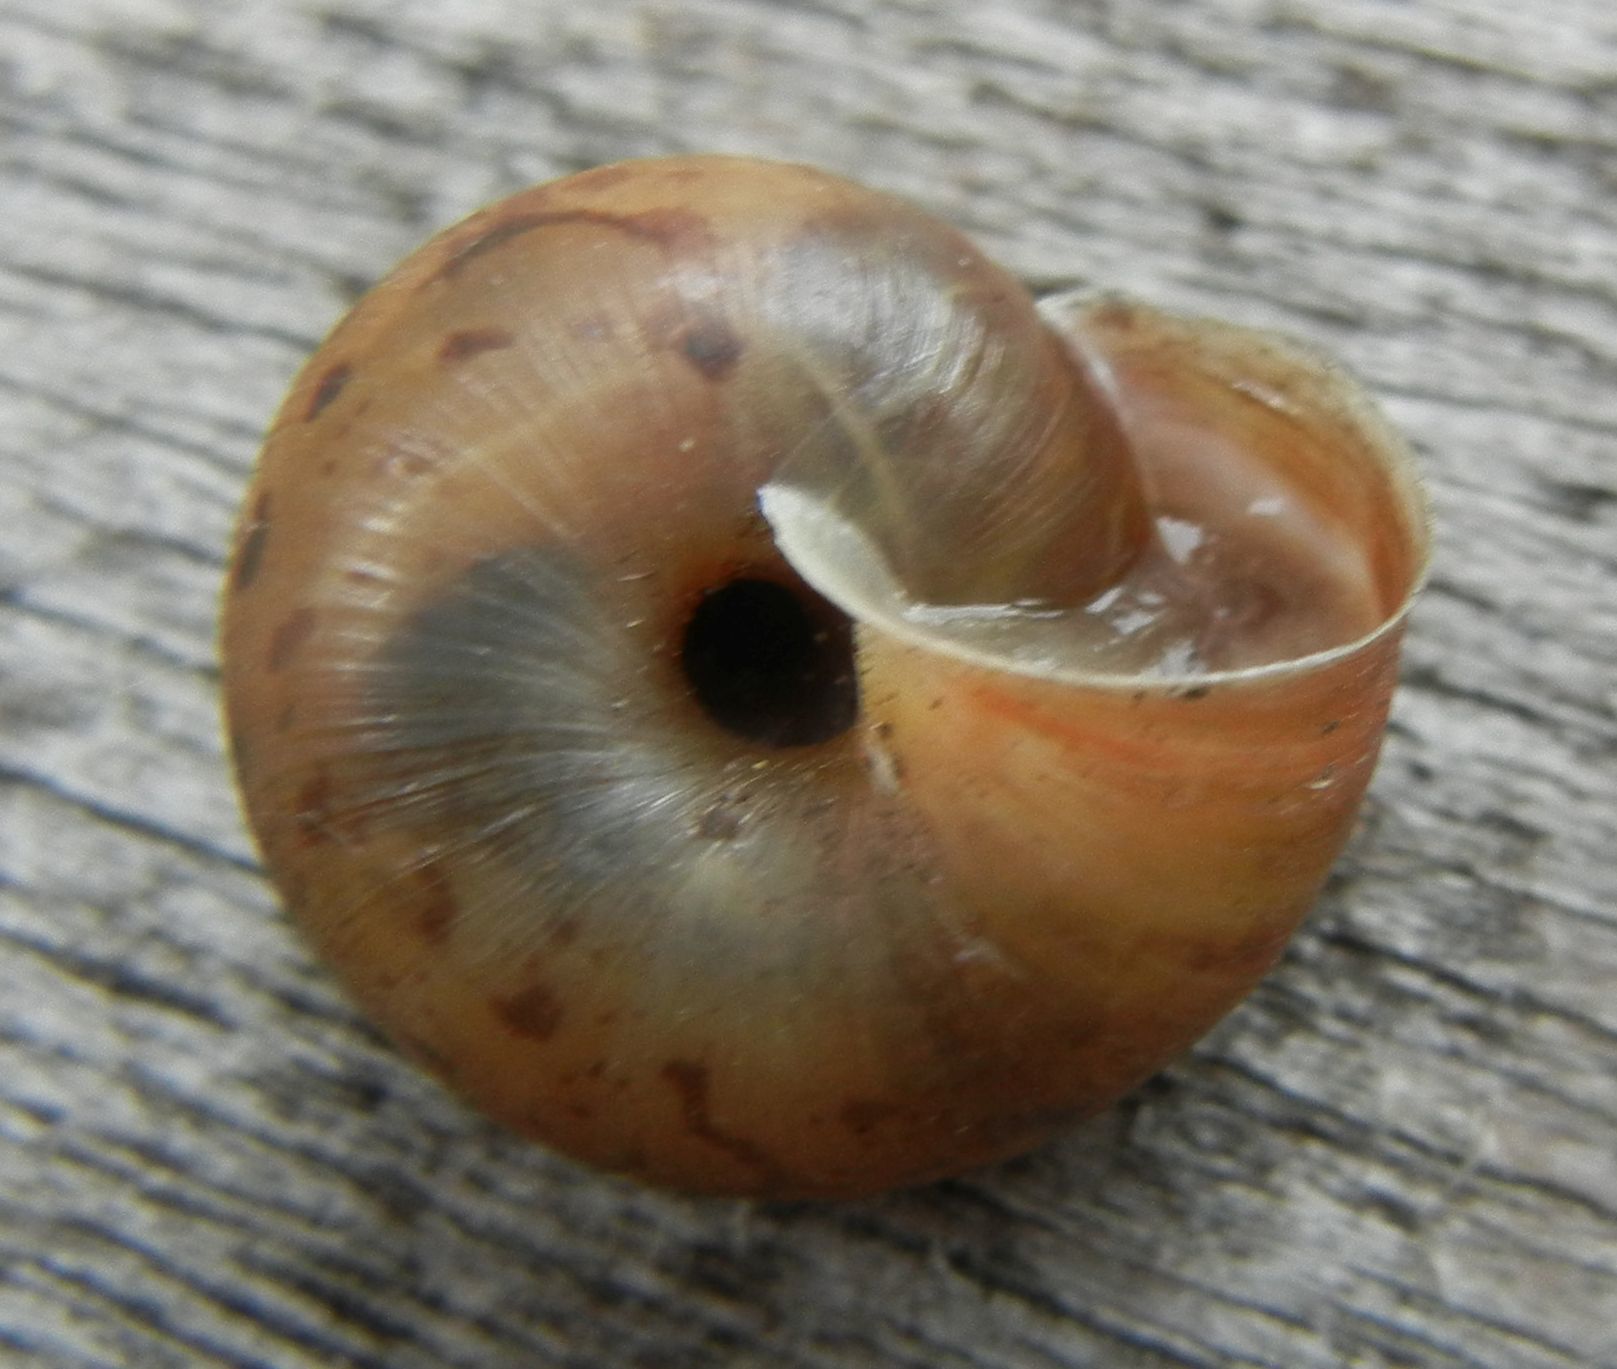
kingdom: Animalia
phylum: Mollusca
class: Gastropoda
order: Stylommatophora
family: Hygromiidae
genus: Trochulus
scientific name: Trochulus striolatus
